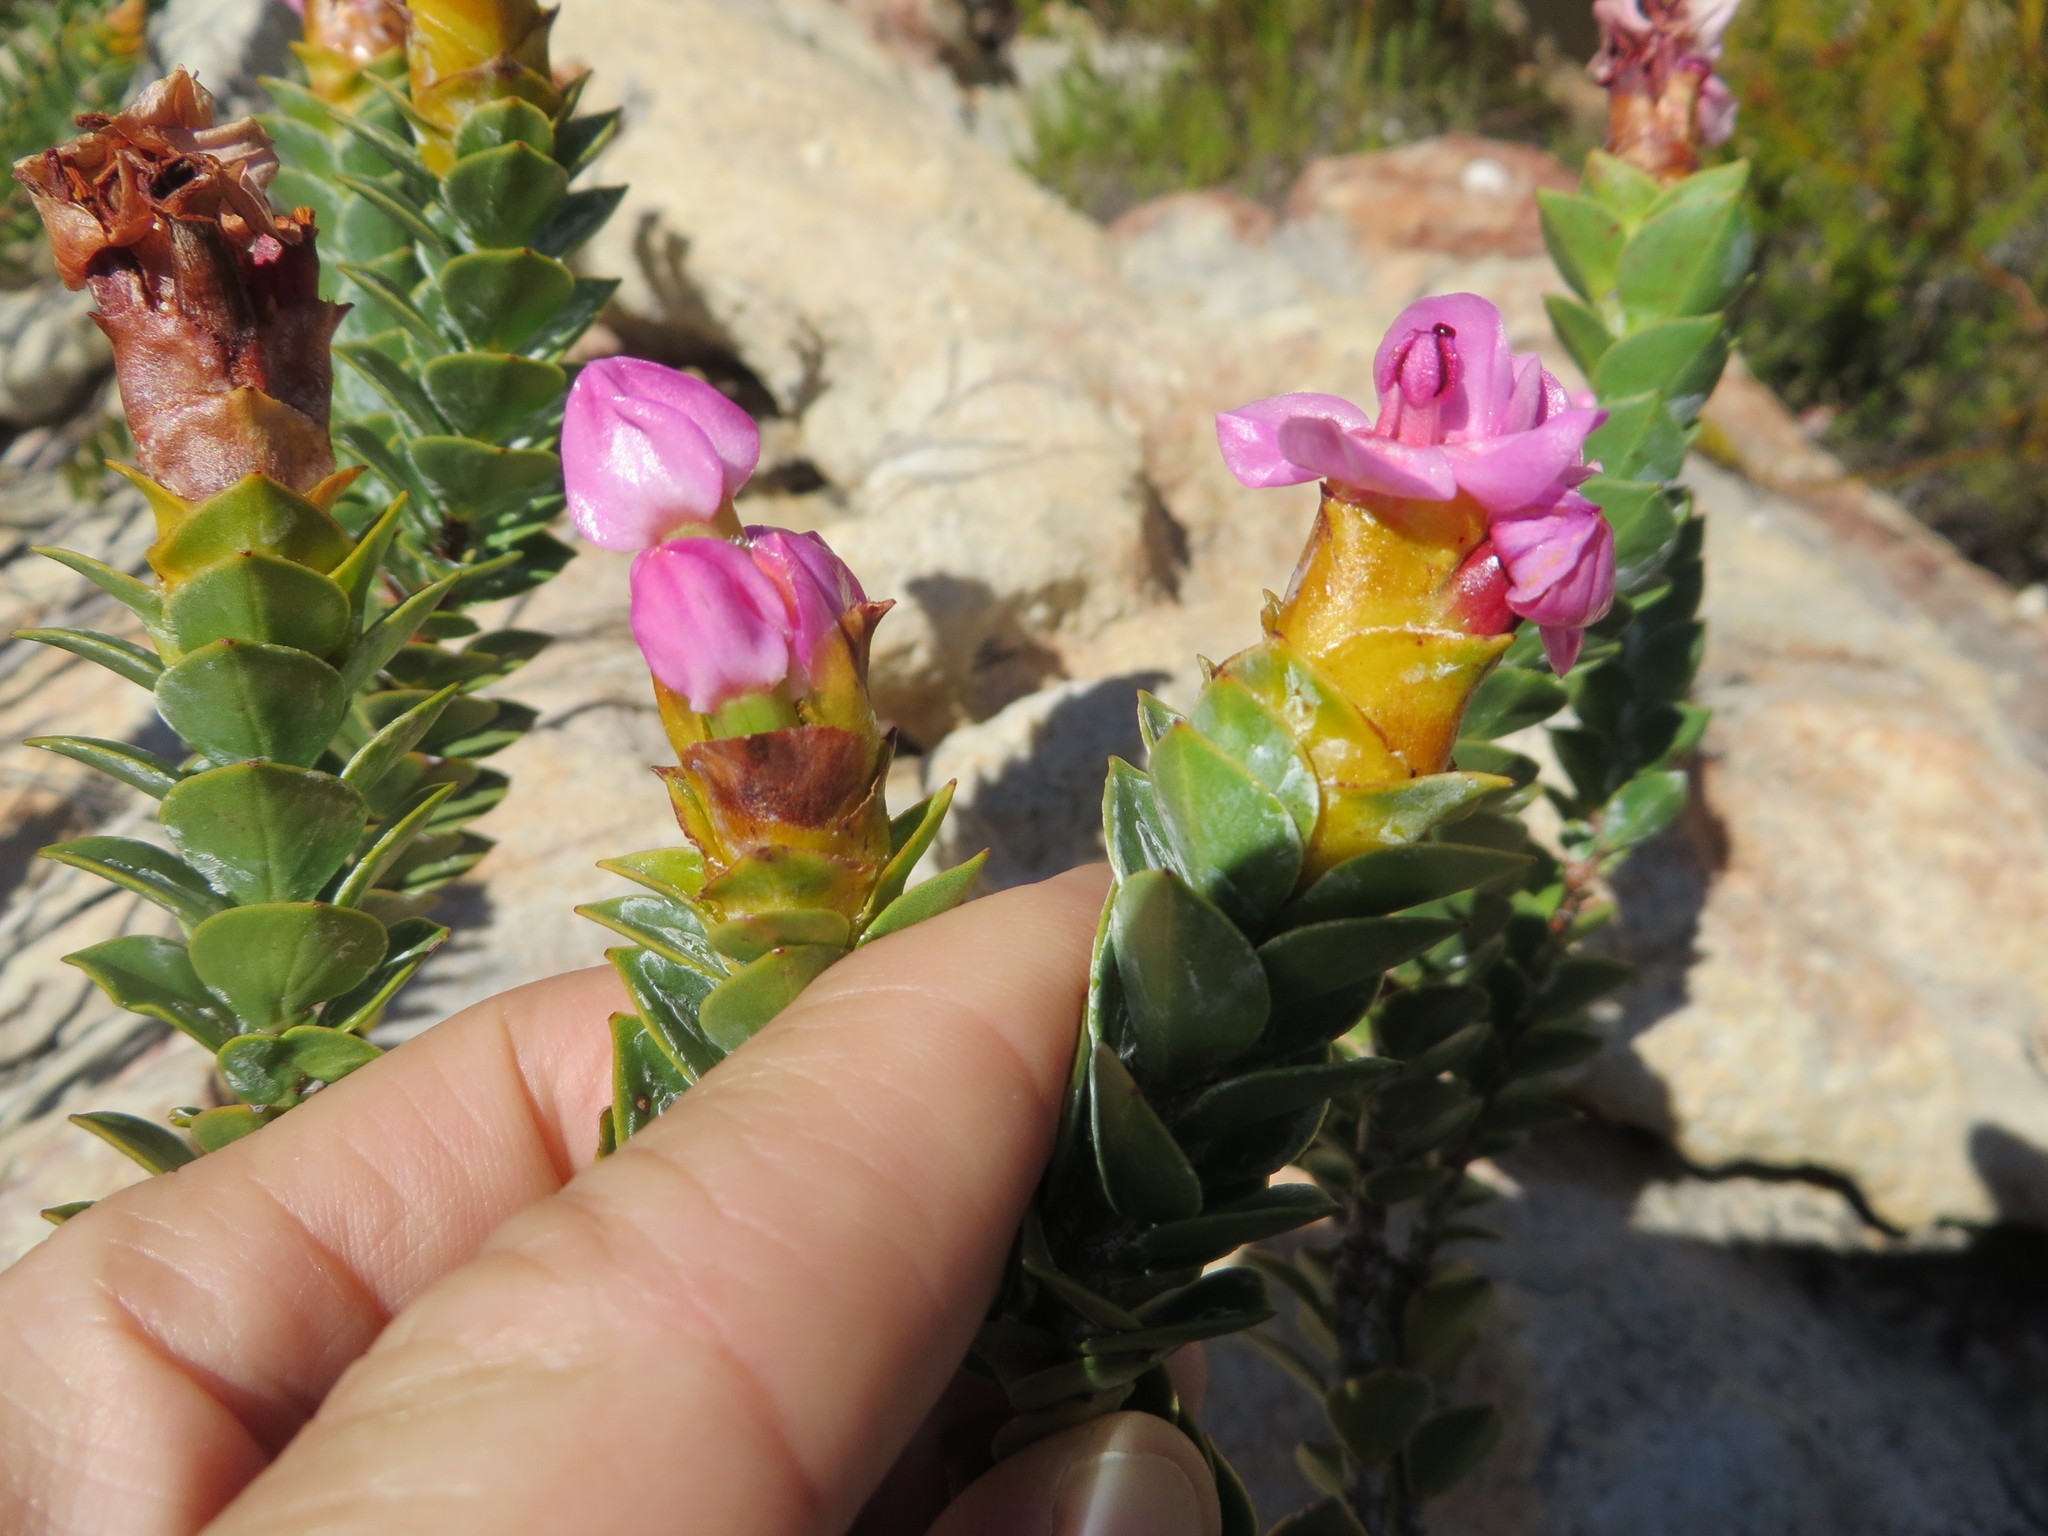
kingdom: Plantae
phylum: Tracheophyta
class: Magnoliopsida
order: Myrtales
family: Penaeaceae
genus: Saltera
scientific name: Saltera sarcocolla
